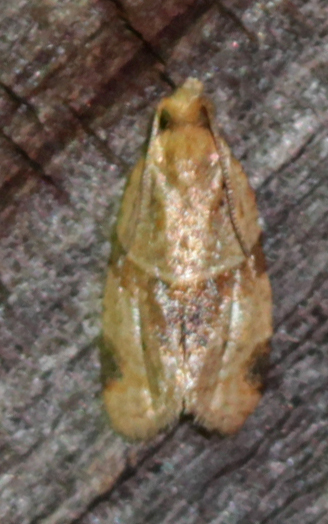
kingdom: Animalia
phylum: Arthropoda
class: Insecta
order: Lepidoptera
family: Tortricidae
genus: Clepsis
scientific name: Clepsis peritana
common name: Garden tortrix
